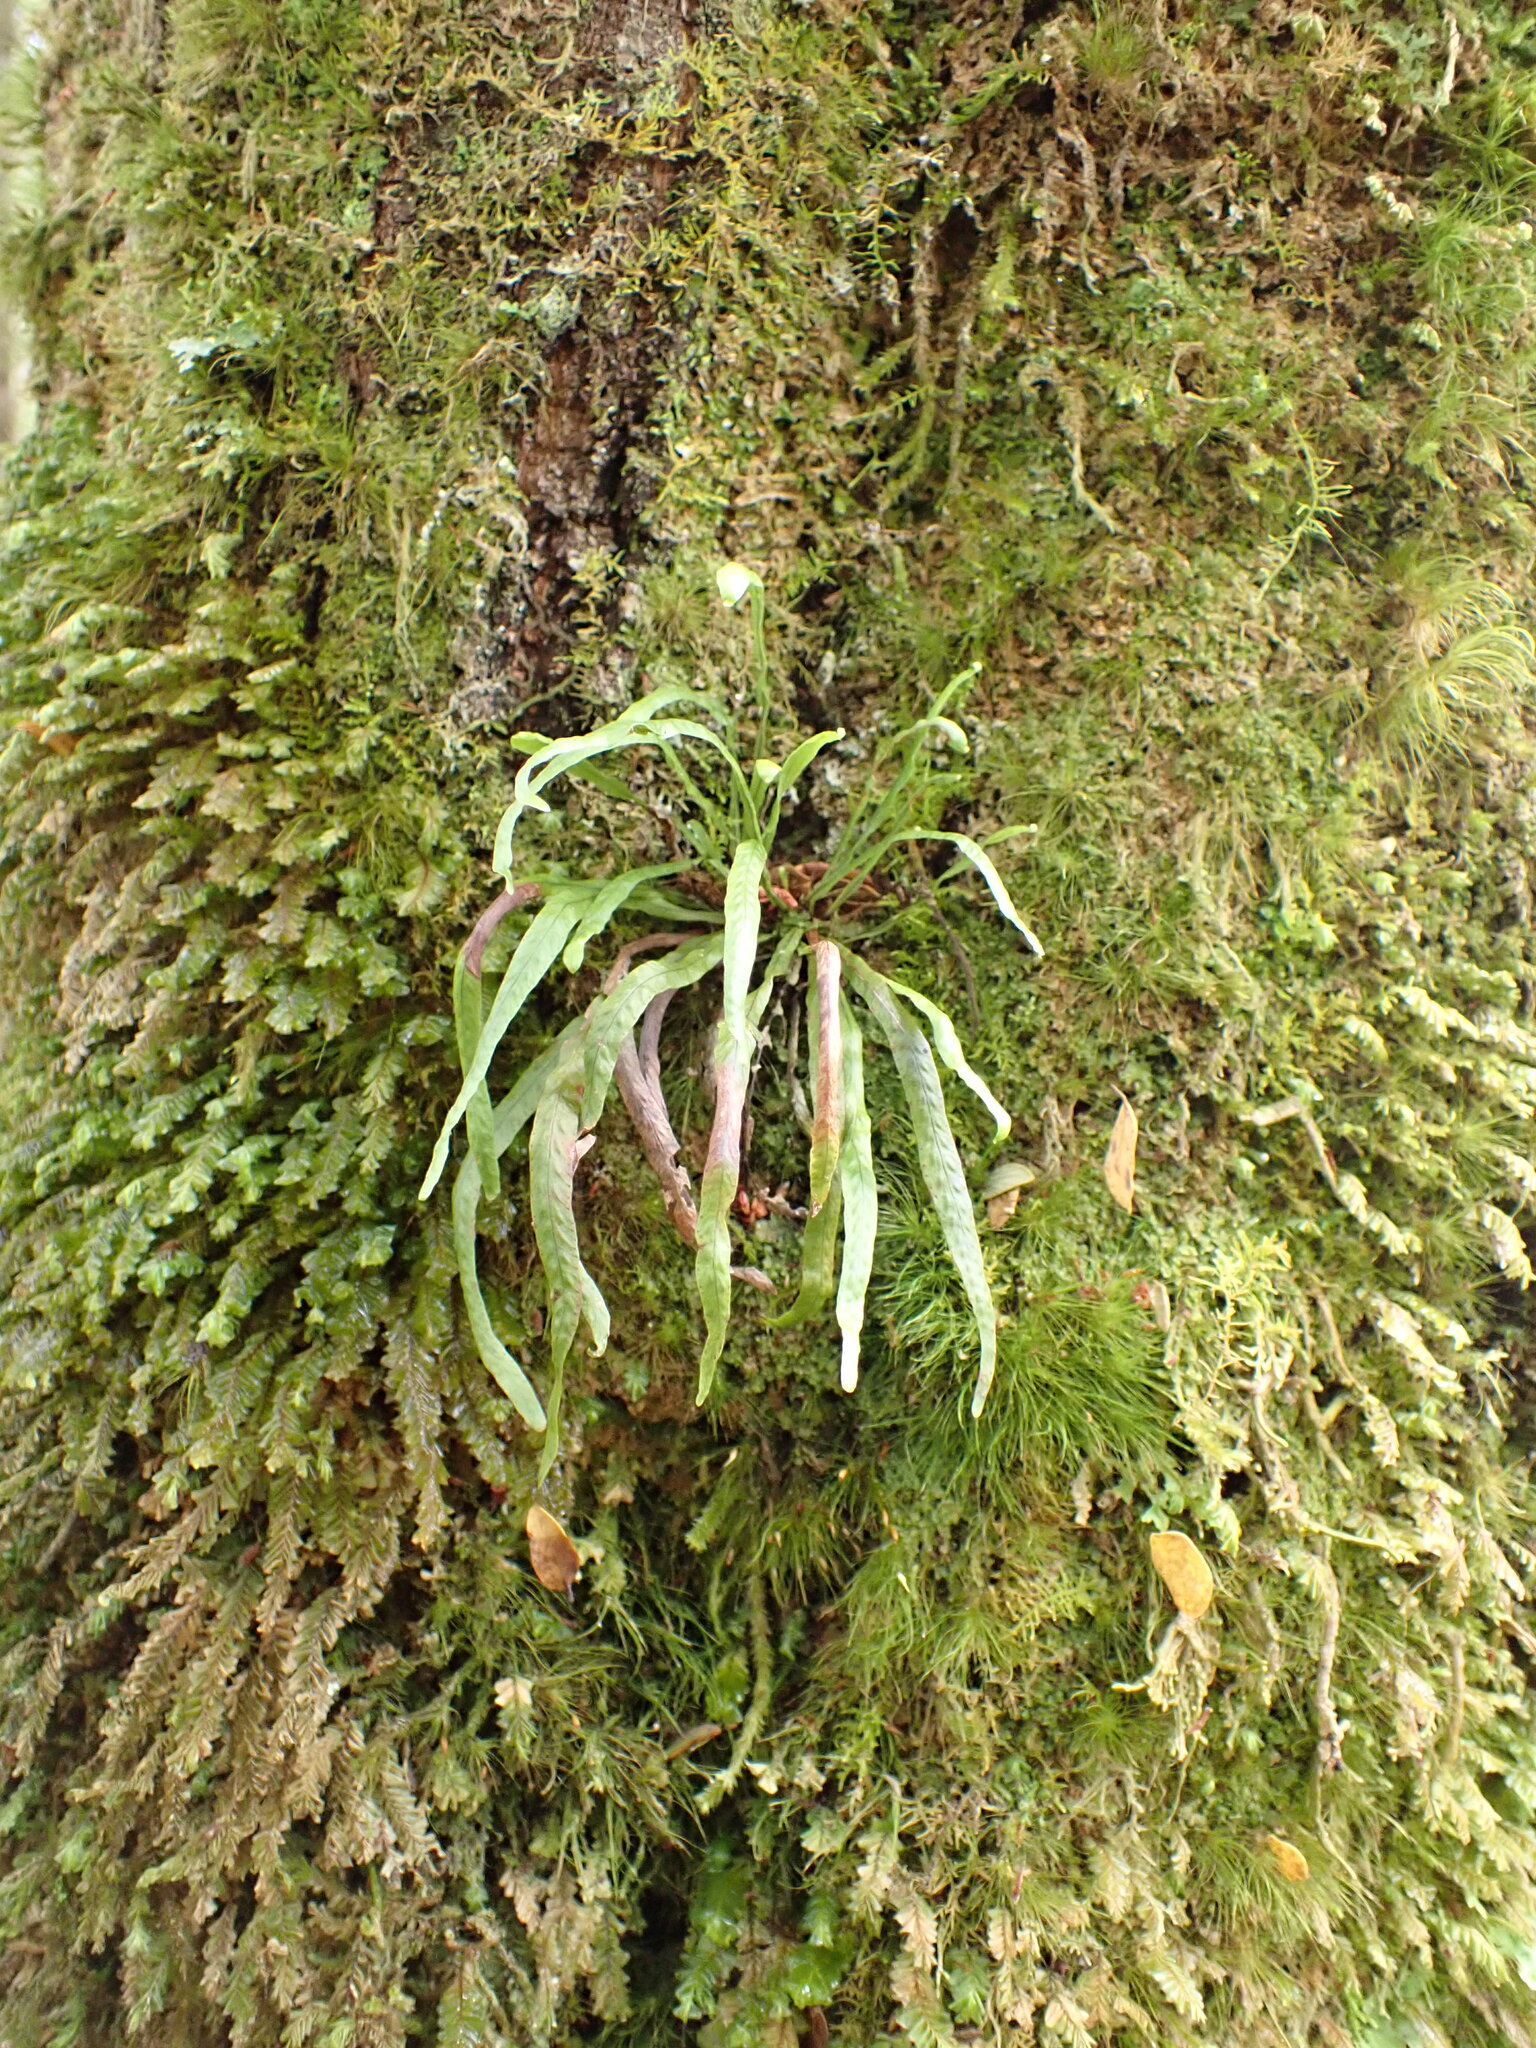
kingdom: Plantae
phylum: Tracheophyta
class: Polypodiopsida
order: Polypodiales
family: Polypodiaceae
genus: Notogrammitis
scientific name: Notogrammitis angustifolia
